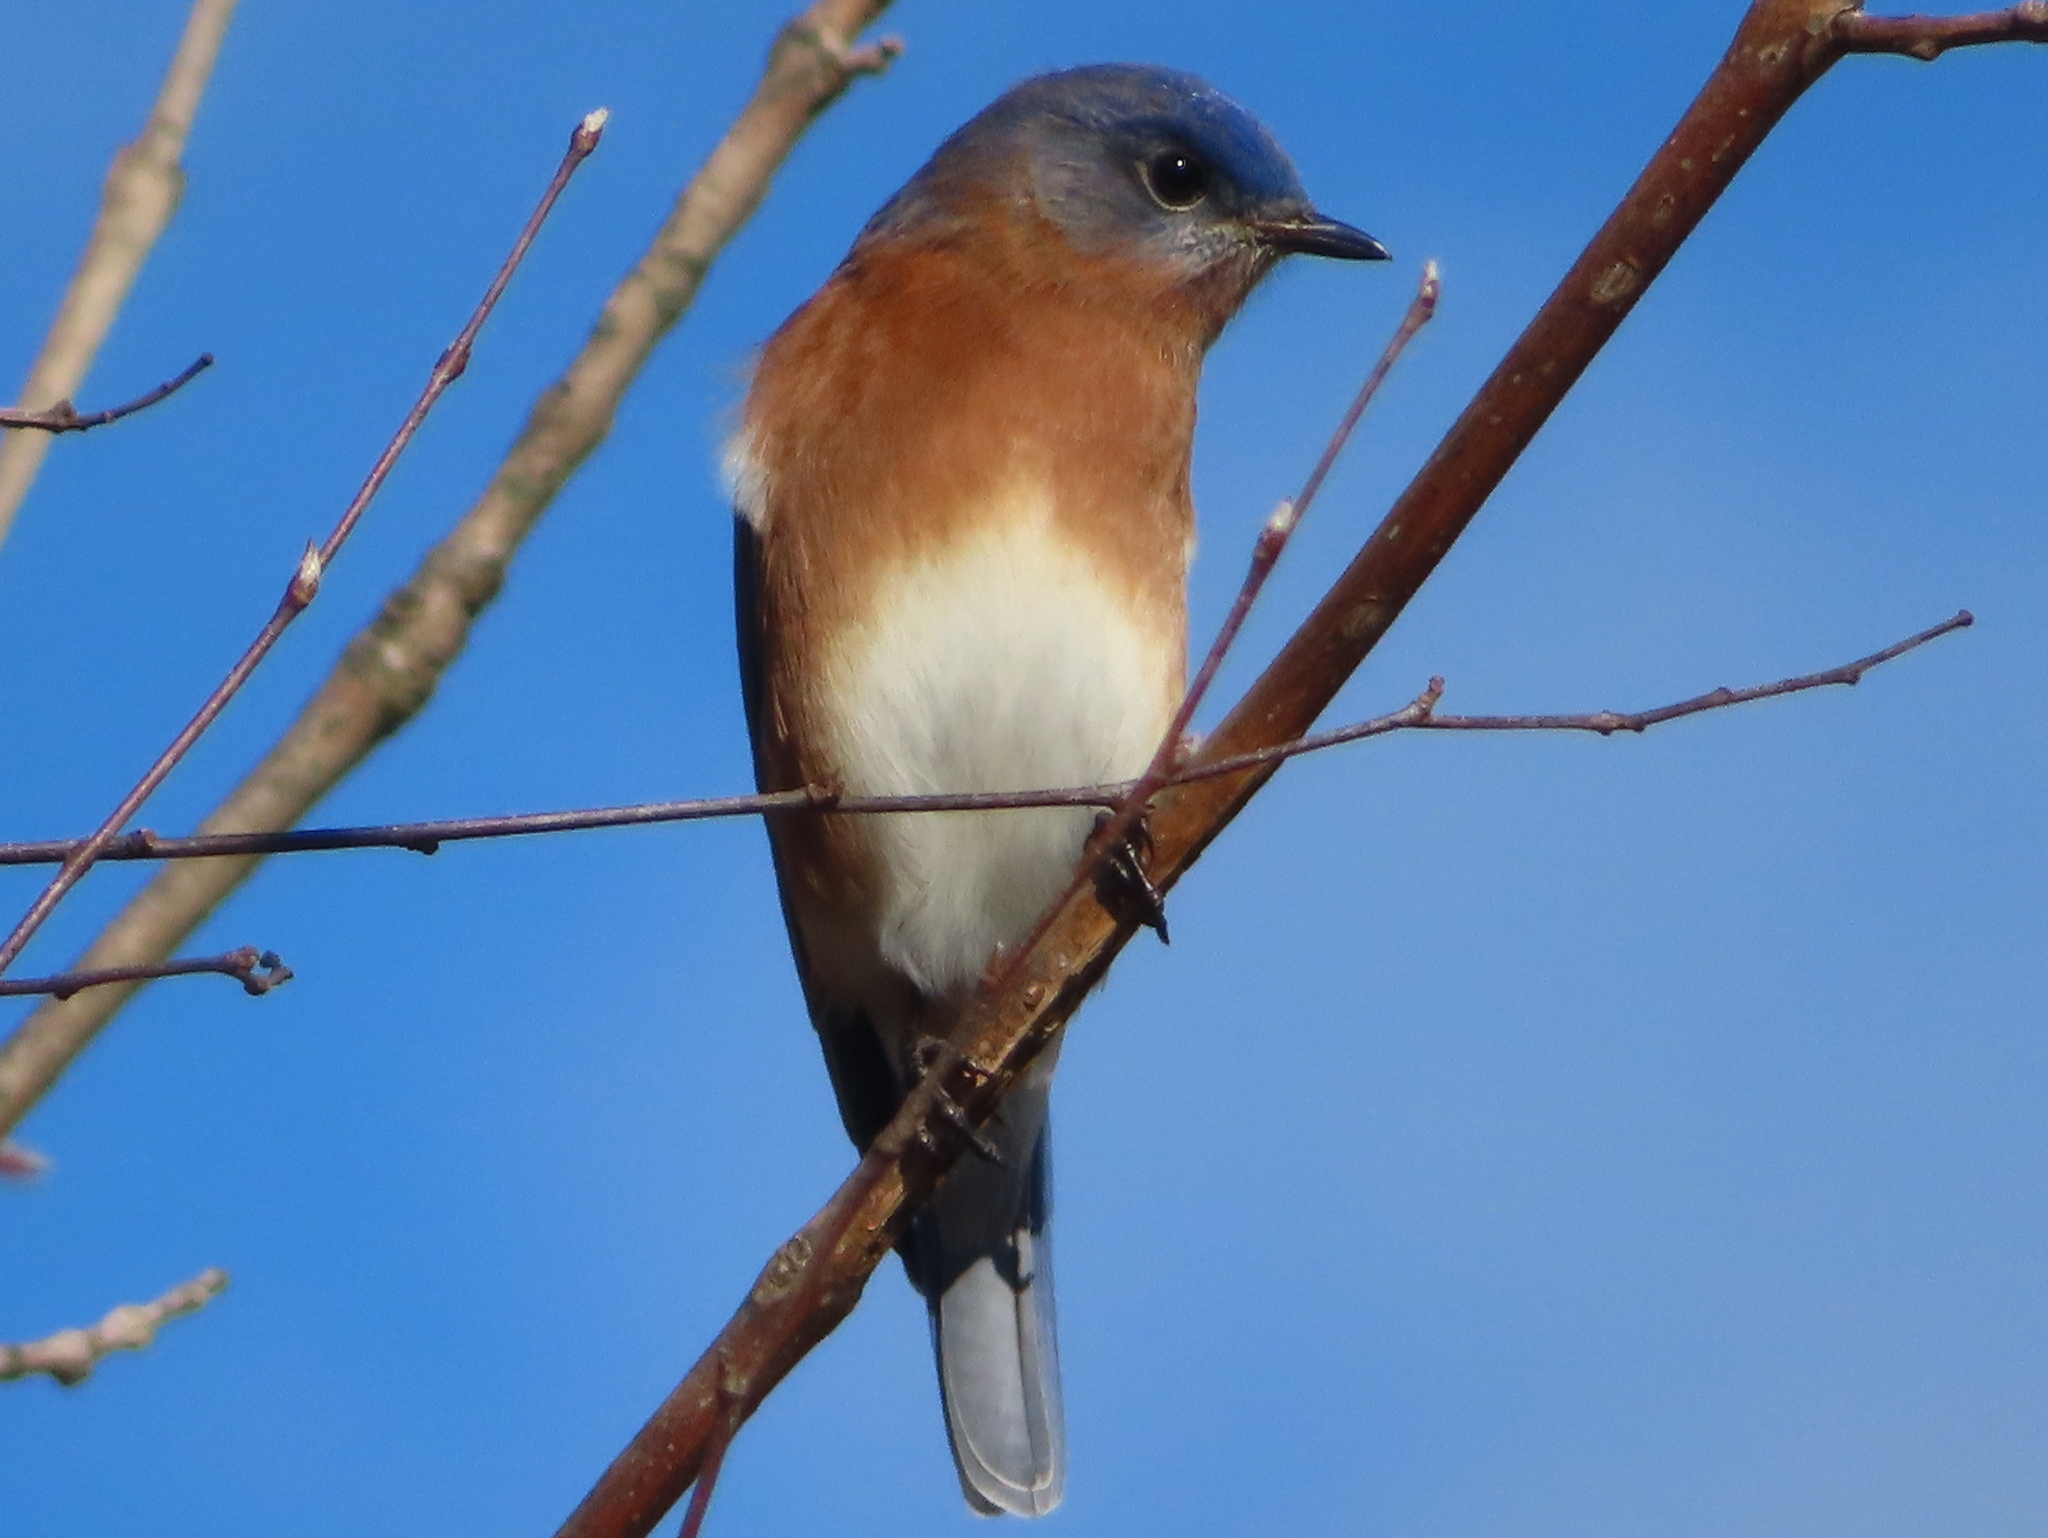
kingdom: Animalia
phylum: Chordata
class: Aves
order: Passeriformes
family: Turdidae
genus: Sialia
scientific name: Sialia sialis
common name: Eastern bluebird
